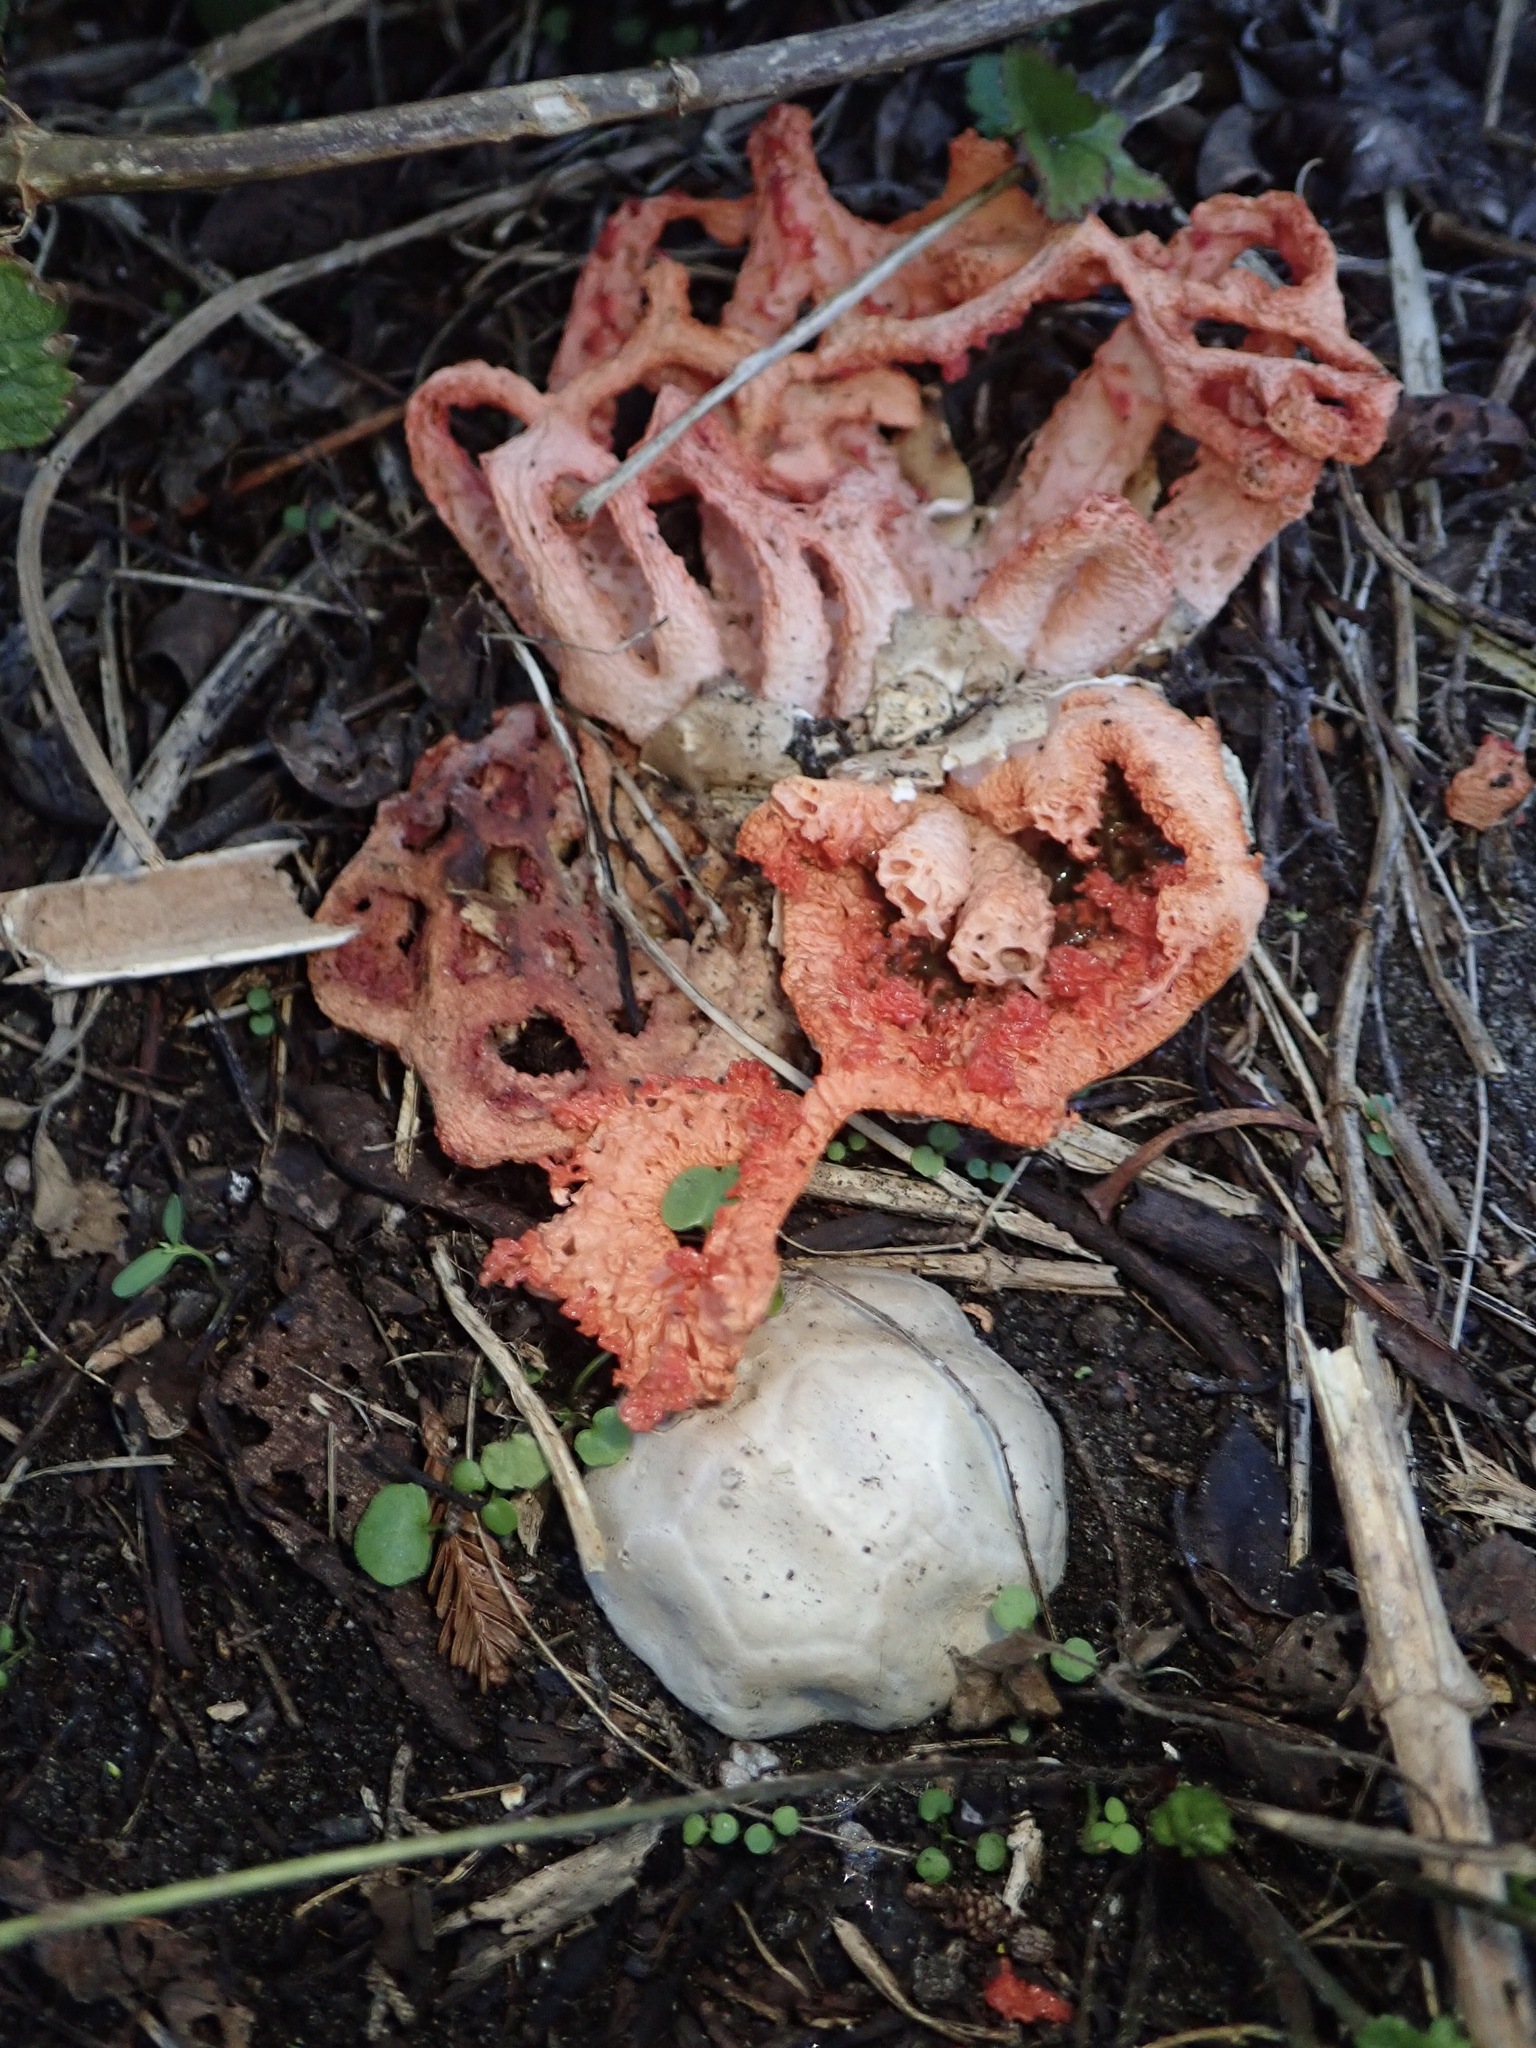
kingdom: Fungi
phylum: Basidiomycota
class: Agaricomycetes
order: Phallales
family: Phallaceae
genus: Clathrus
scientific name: Clathrus ruber
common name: Red cage
